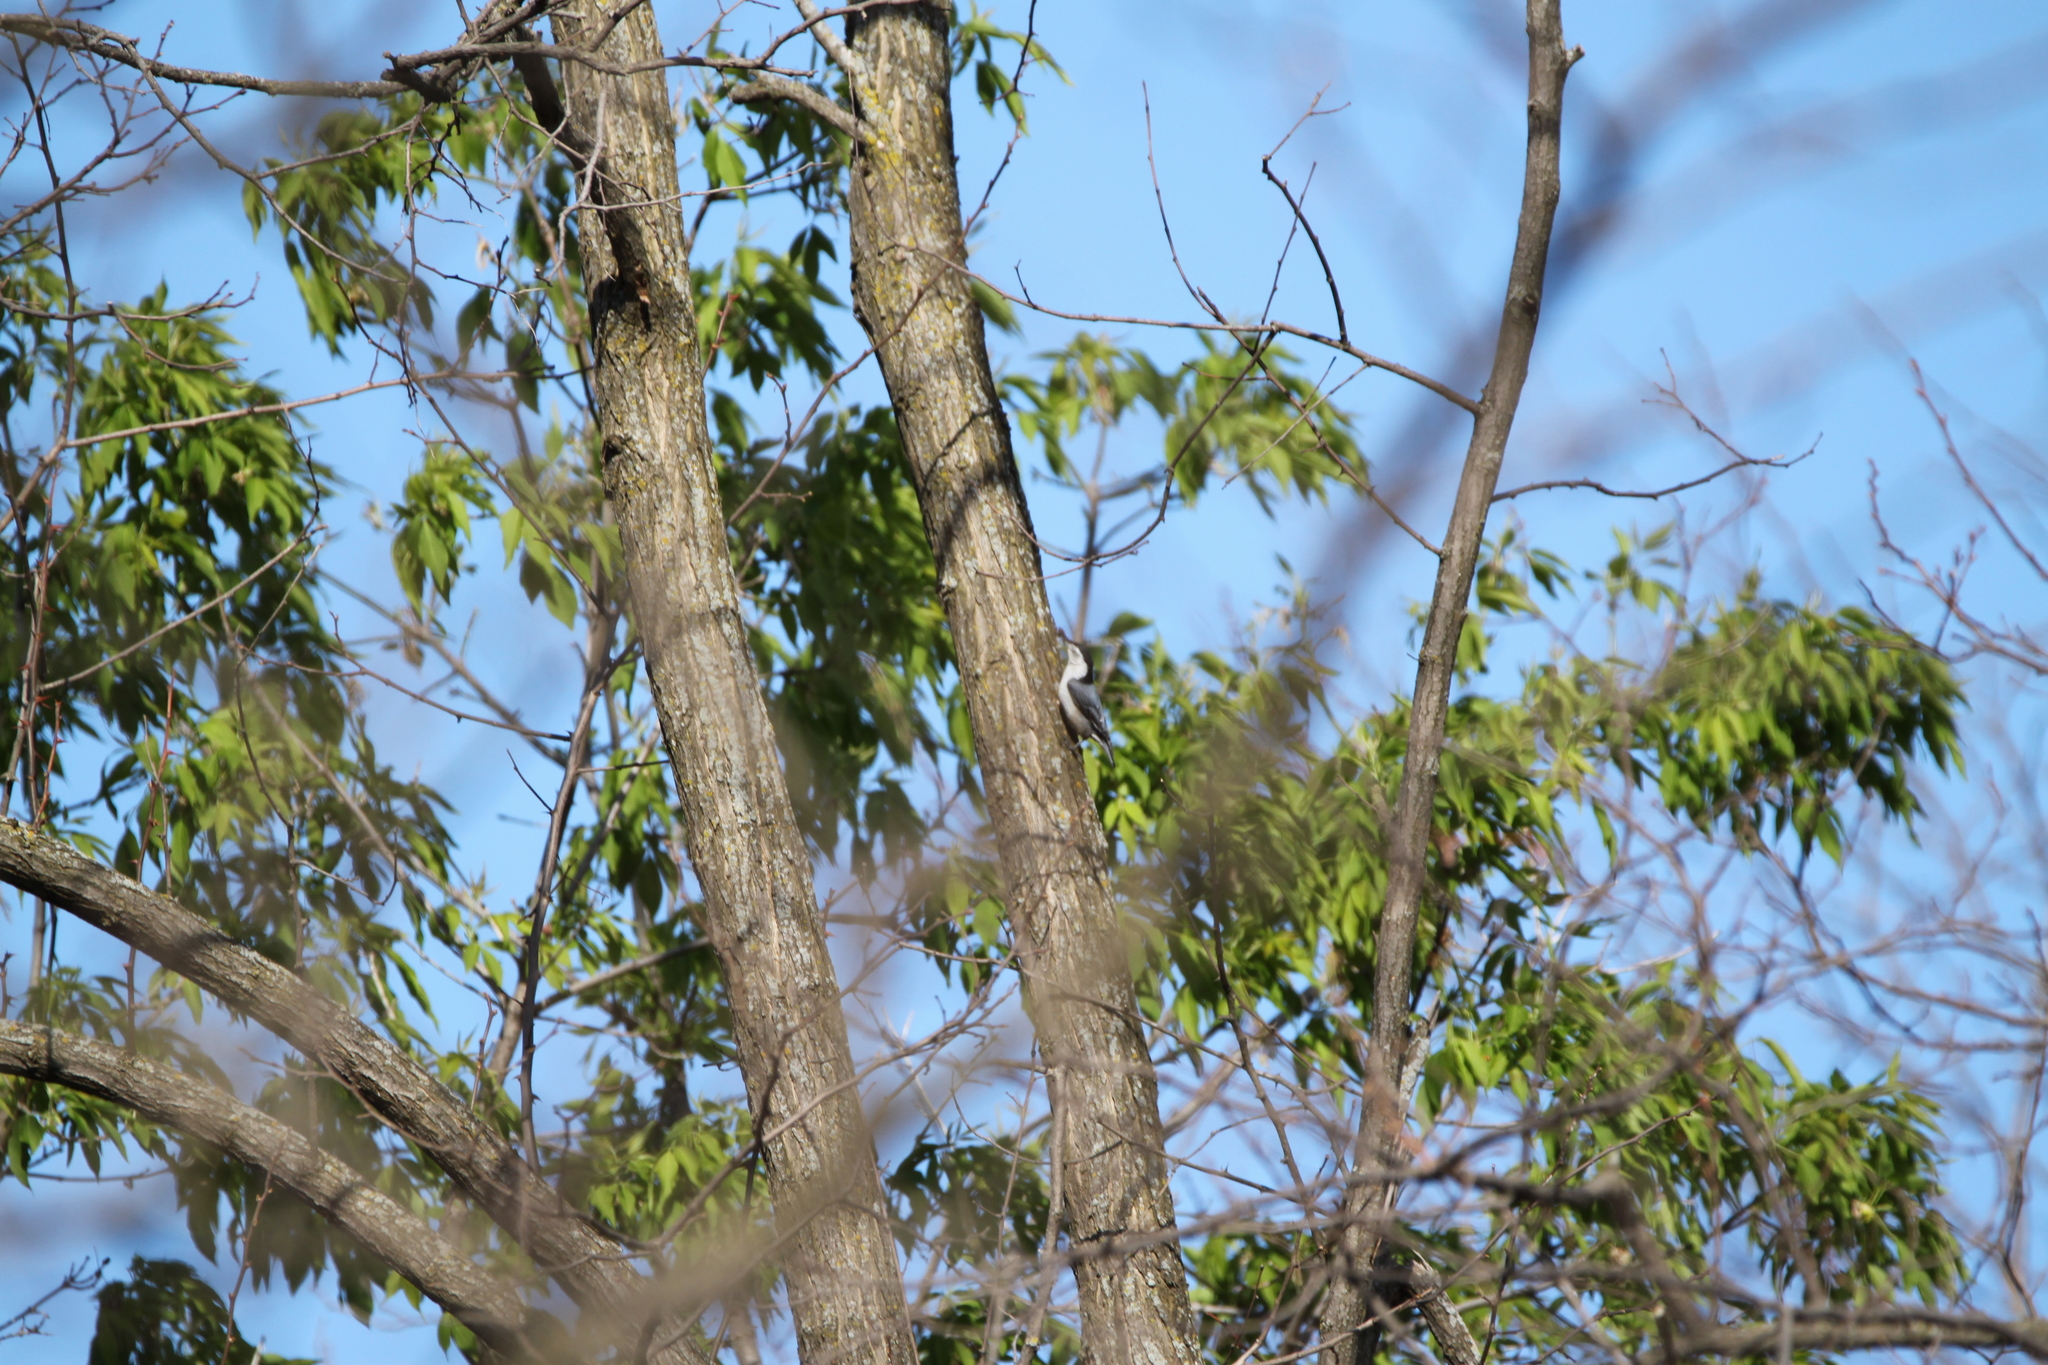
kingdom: Animalia
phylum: Chordata
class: Aves
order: Passeriformes
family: Sittidae
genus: Sitta
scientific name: Sitta carolinensis
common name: White-breasted nuthatch
